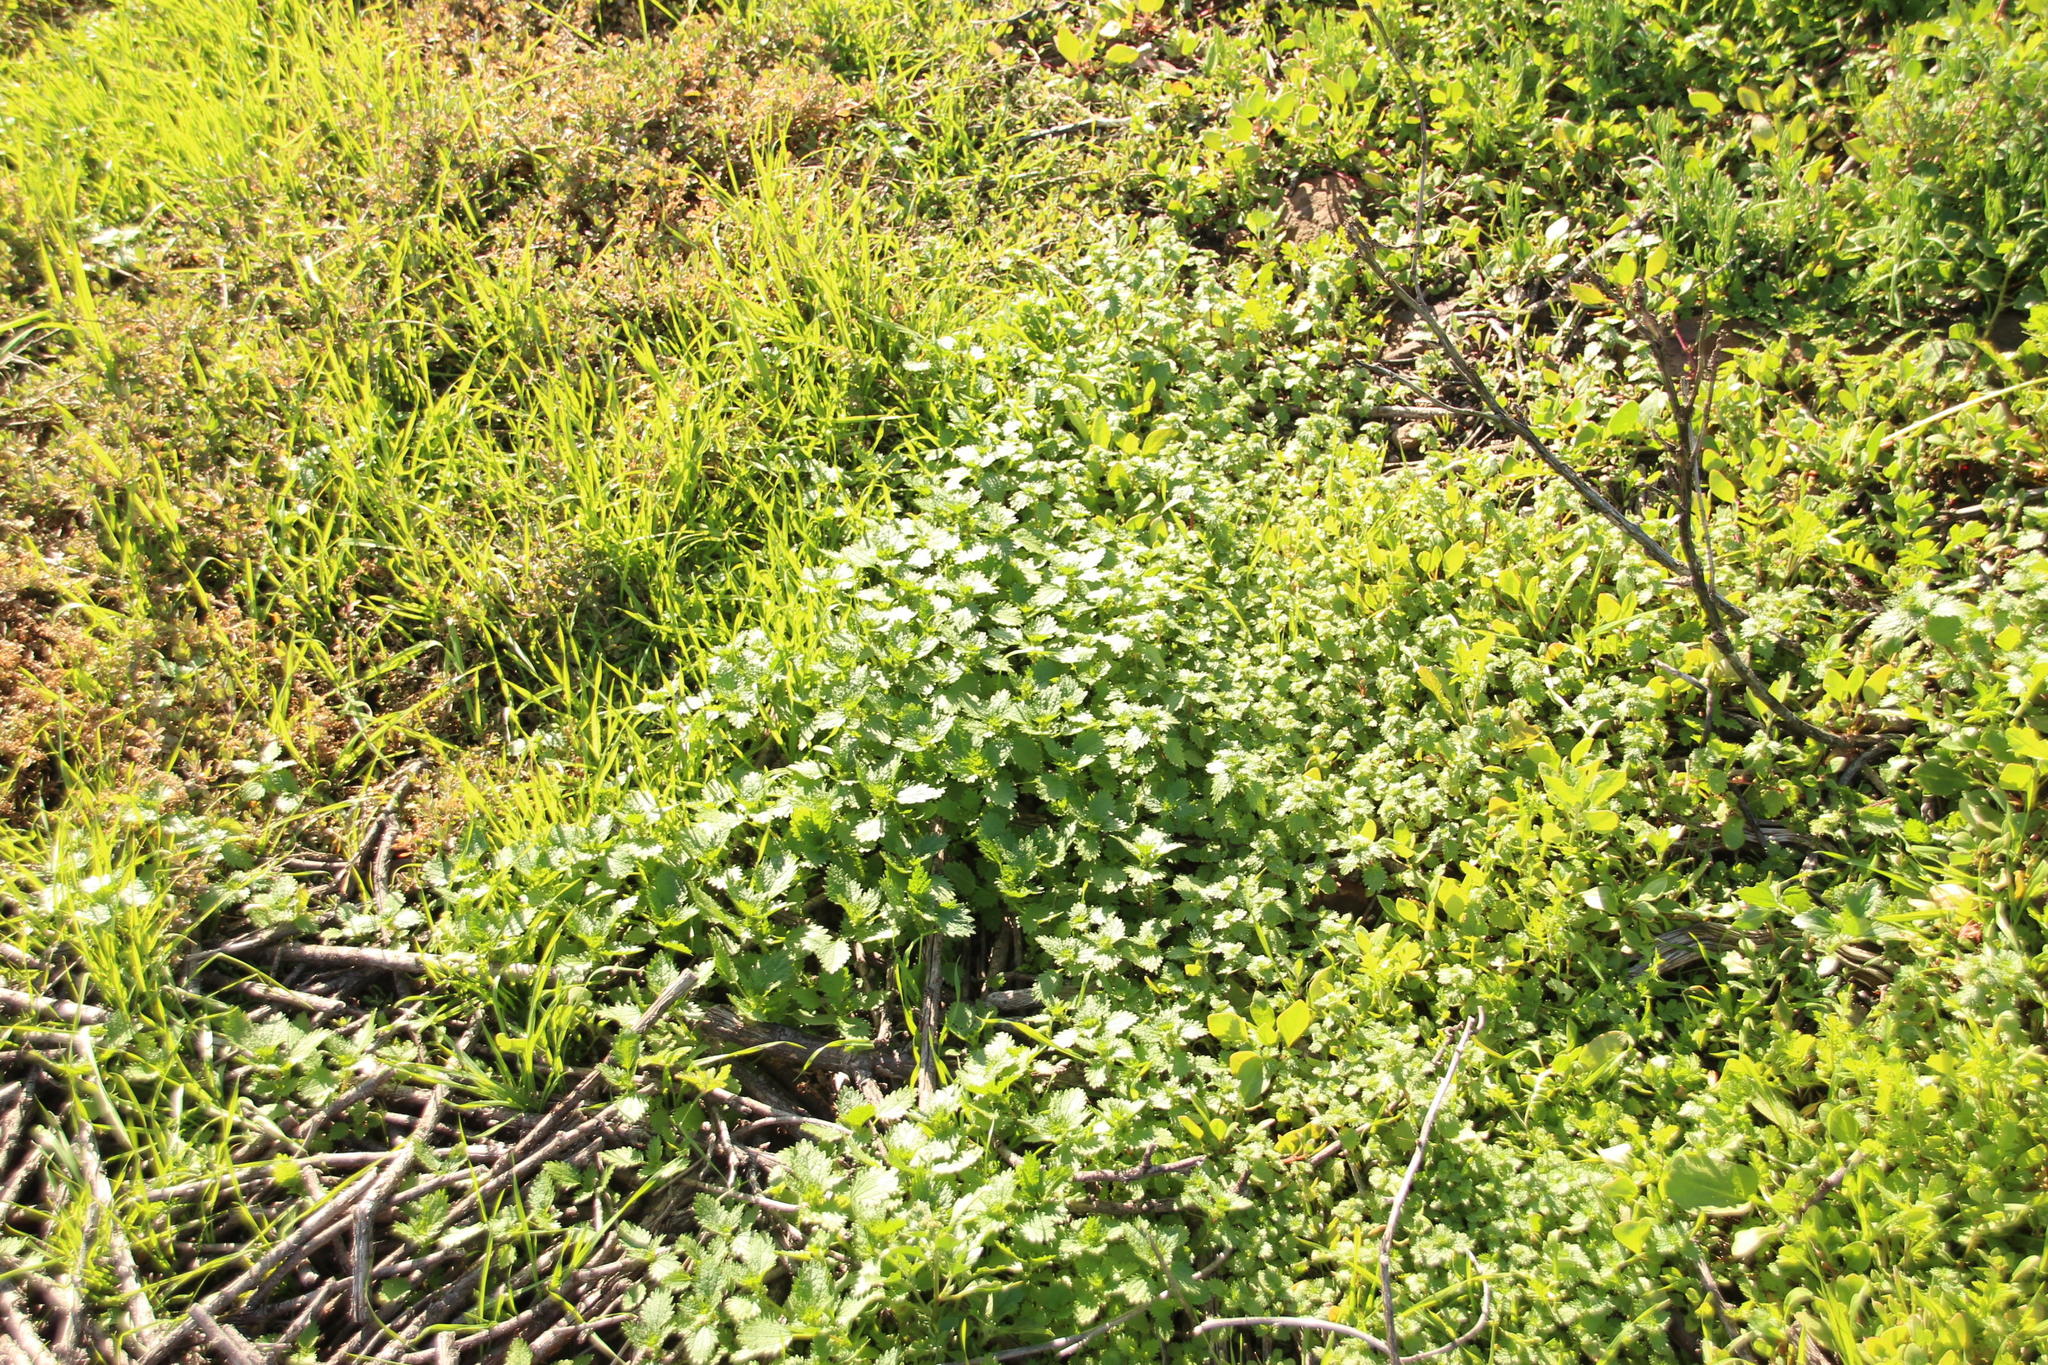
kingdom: Plantae
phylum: Tracheophyta
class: Magnoliopsida
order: Rosales
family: Urticaceae
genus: Urtica
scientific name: Urtica urens
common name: Dwarf nettle
